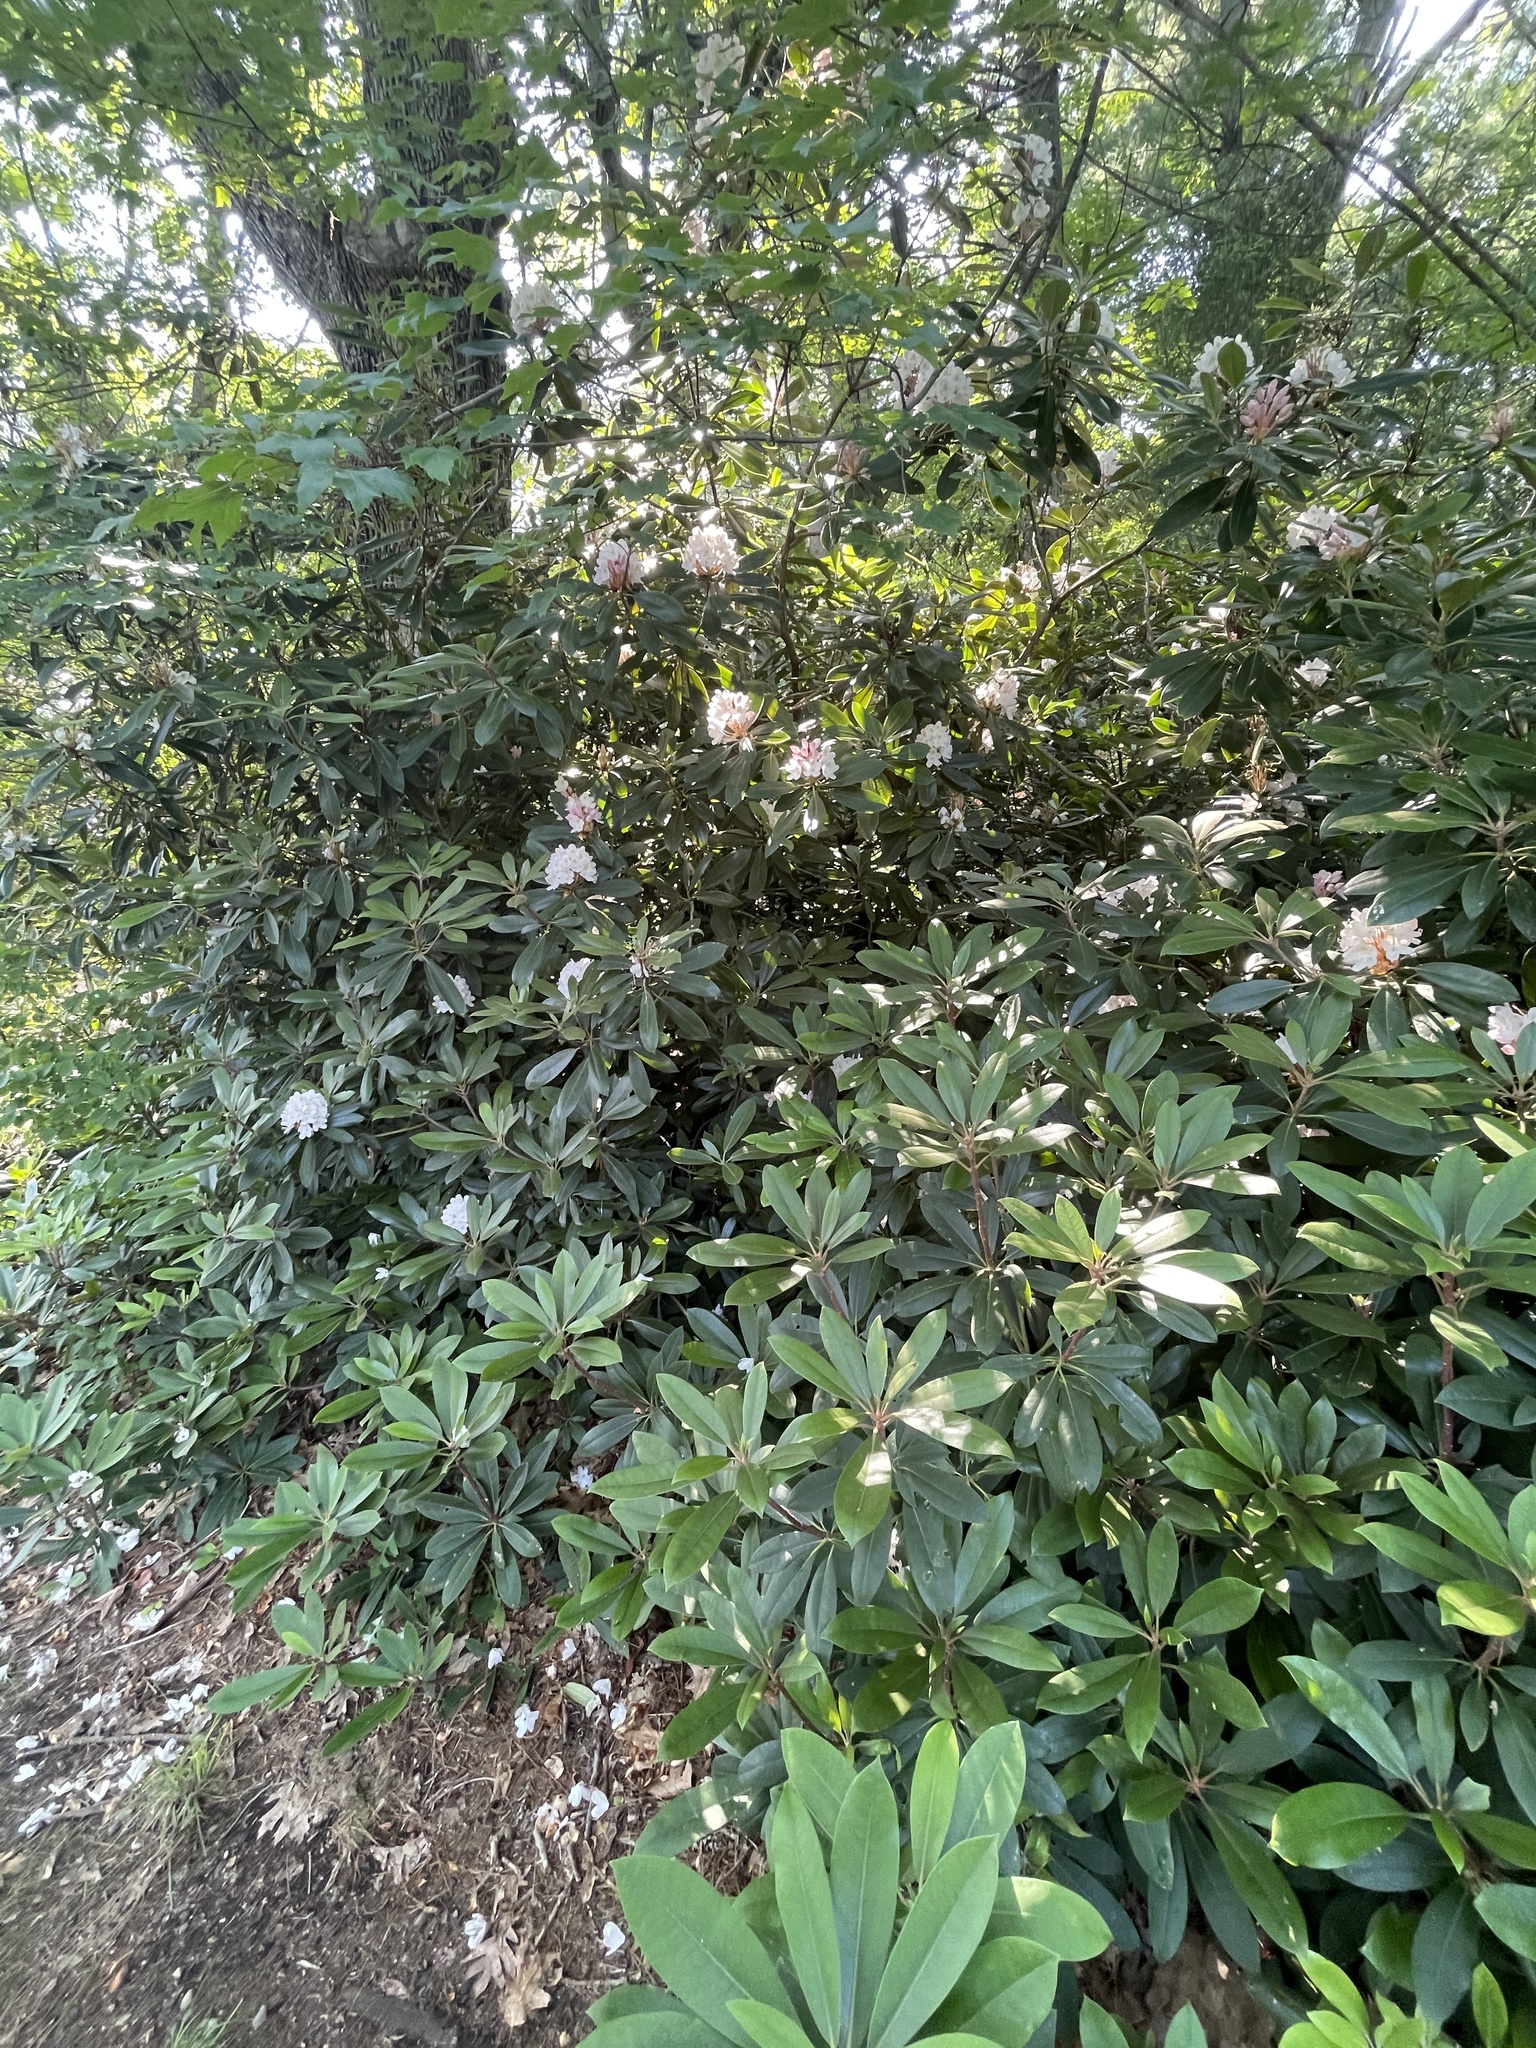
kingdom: Plantae
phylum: Tracheophyta
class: Magnoliopsida
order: Ericales
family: Ericaceae
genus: Rhododendron
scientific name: Rhododendron maximum
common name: Great rhododendron
